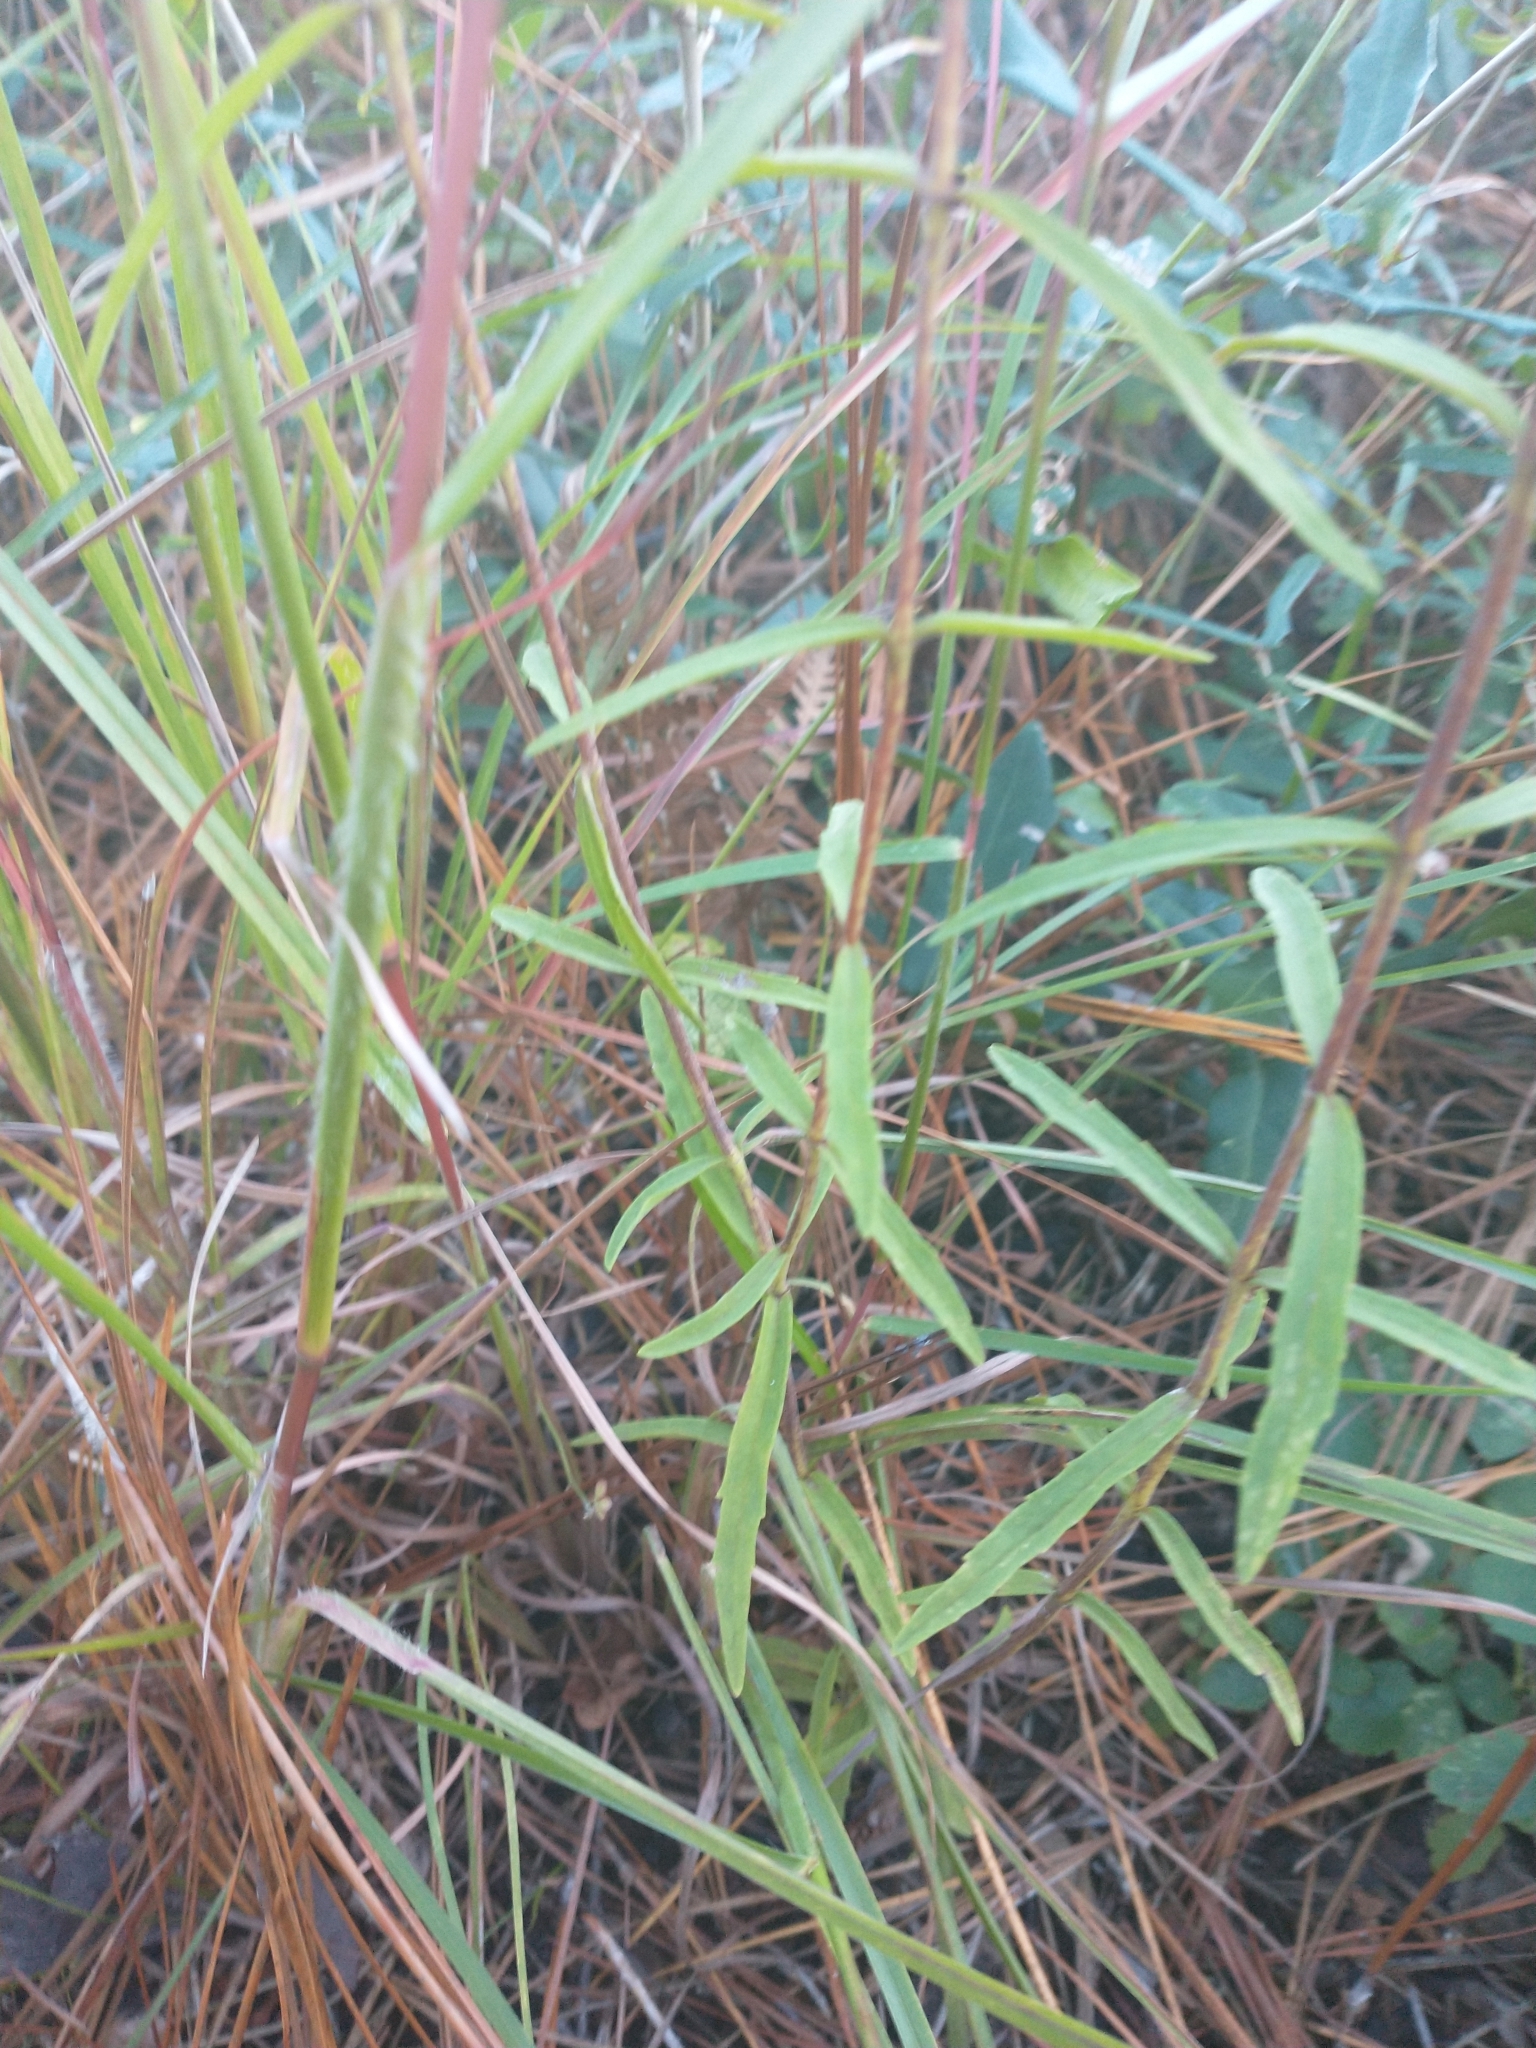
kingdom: Plantae
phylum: Tracheophyta
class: Magnoliopsida
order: Asterales
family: Asteraceae
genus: Eupatorium
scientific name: Eupatorium leucolepis
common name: Justiceweed
